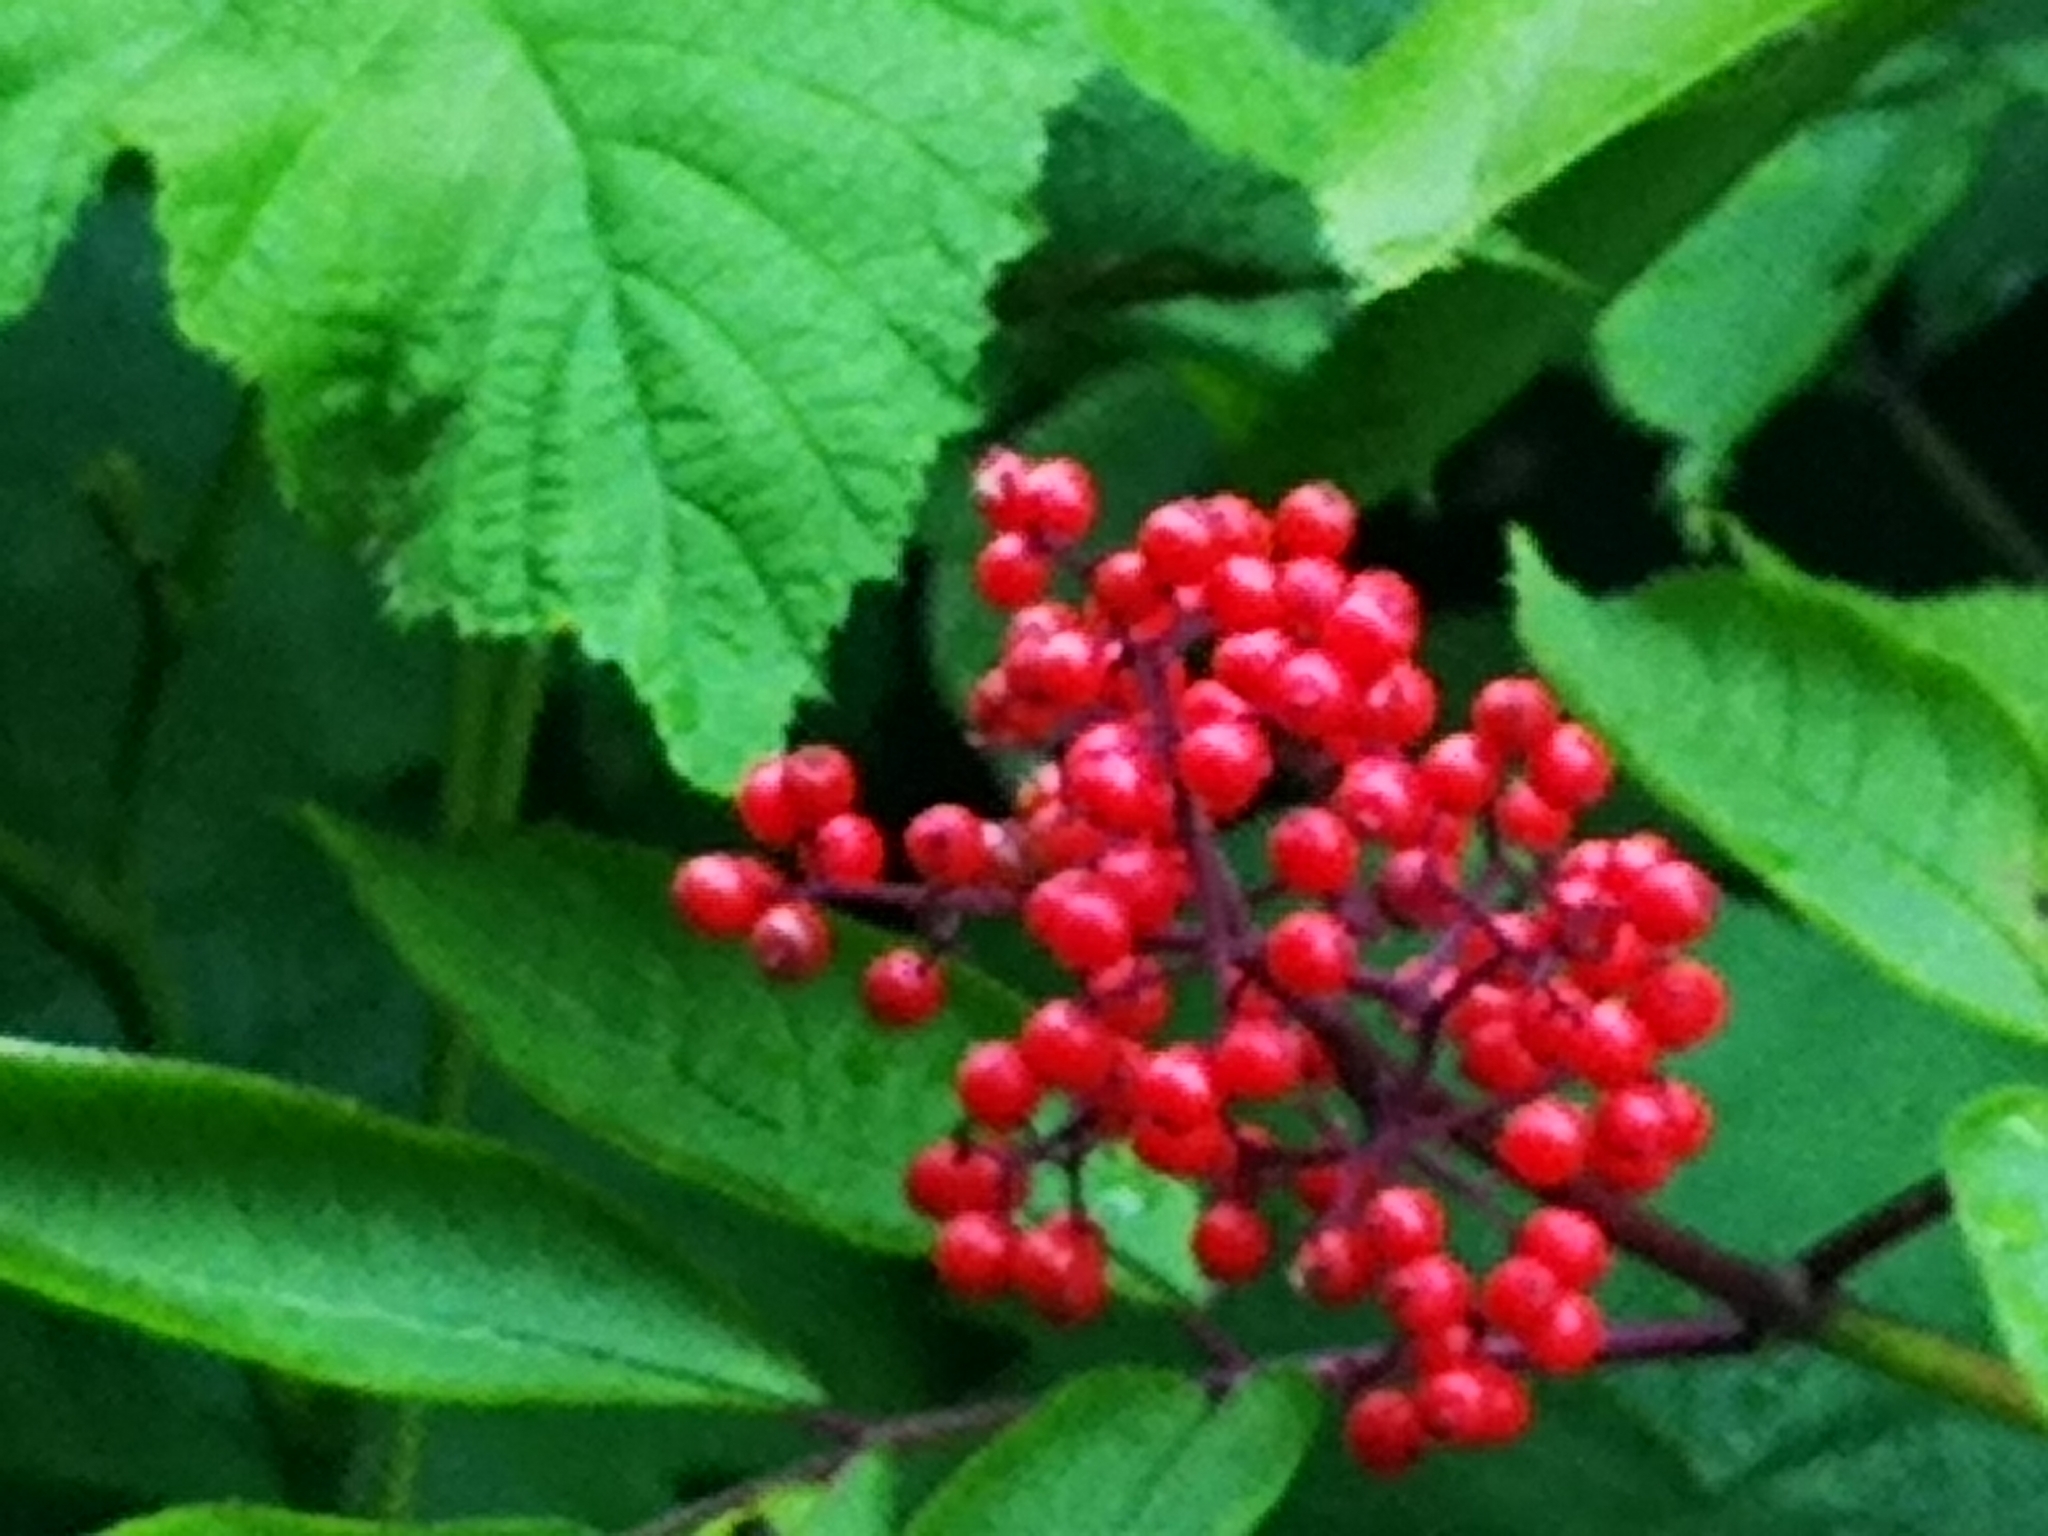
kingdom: Plantae
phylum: Tracheophyta
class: Magnoliopsida
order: Dipsacales
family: Viburnaceae
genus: Sambucus
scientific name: Sambucus racemosa
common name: Red-berried elder
